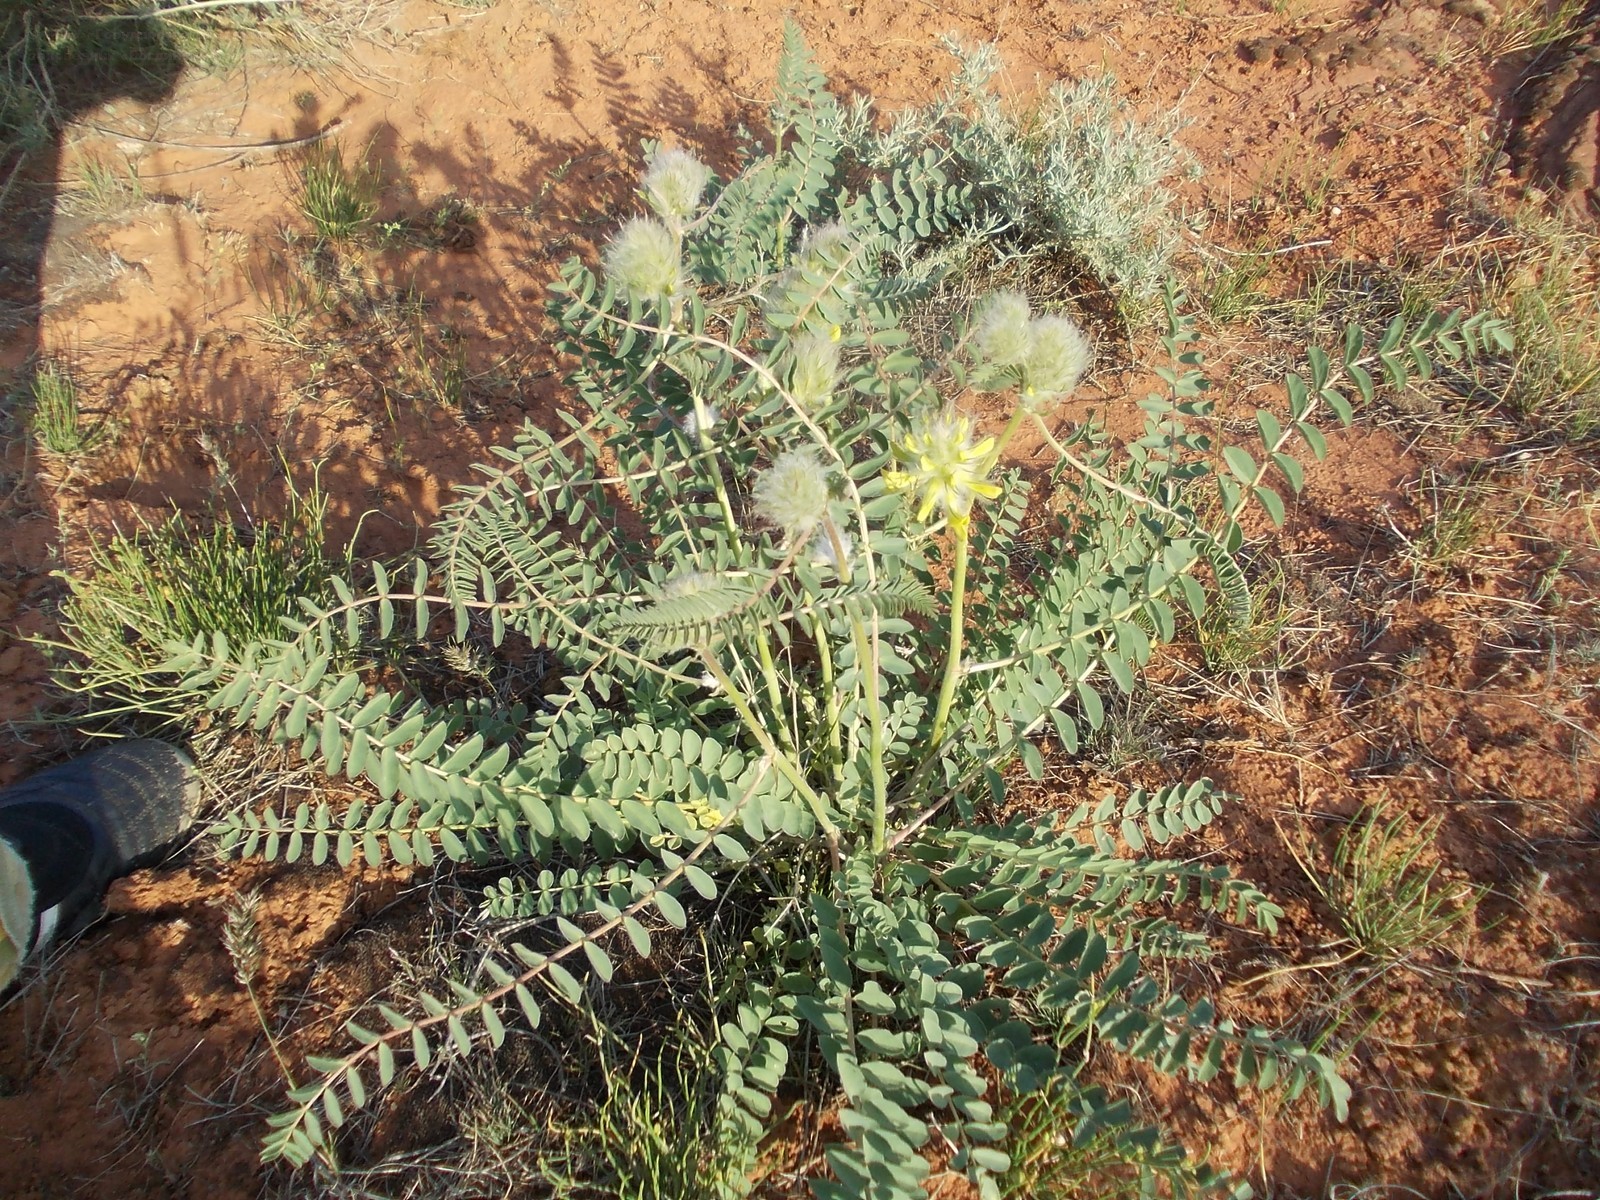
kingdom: Plantae
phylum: Tracheophyta
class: Magnoliopsida
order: Fabales
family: Fabaceae
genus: Astragalus
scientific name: Astragalus vulpinus
